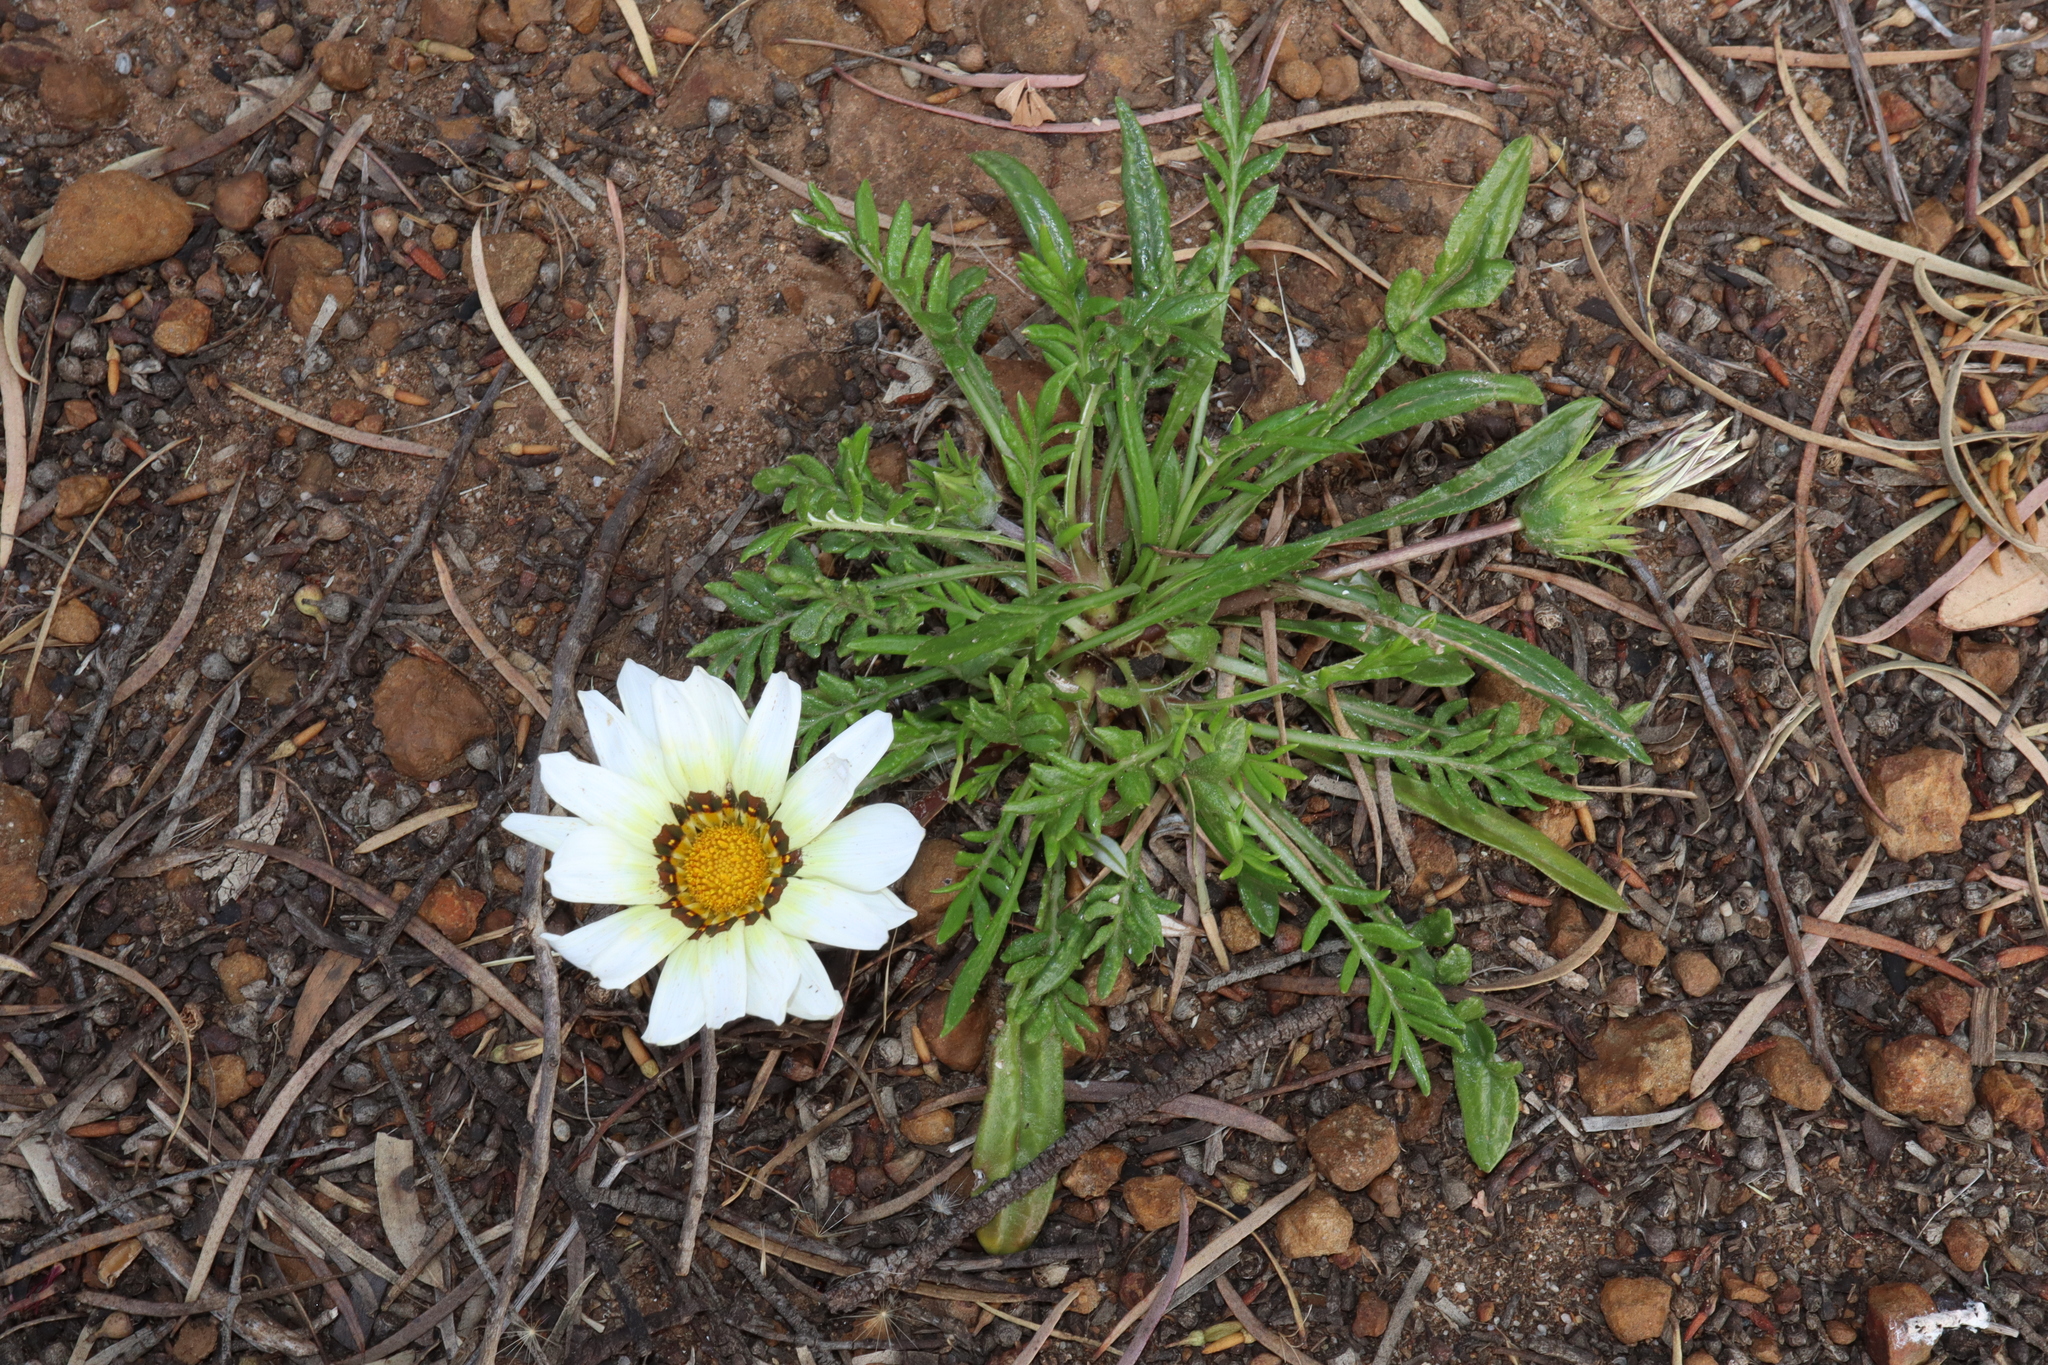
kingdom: Plantae
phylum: Tracheophyta
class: Magnoliopsida
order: Asterales
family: Asteraceae
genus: Gazania
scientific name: Gazania splendens
